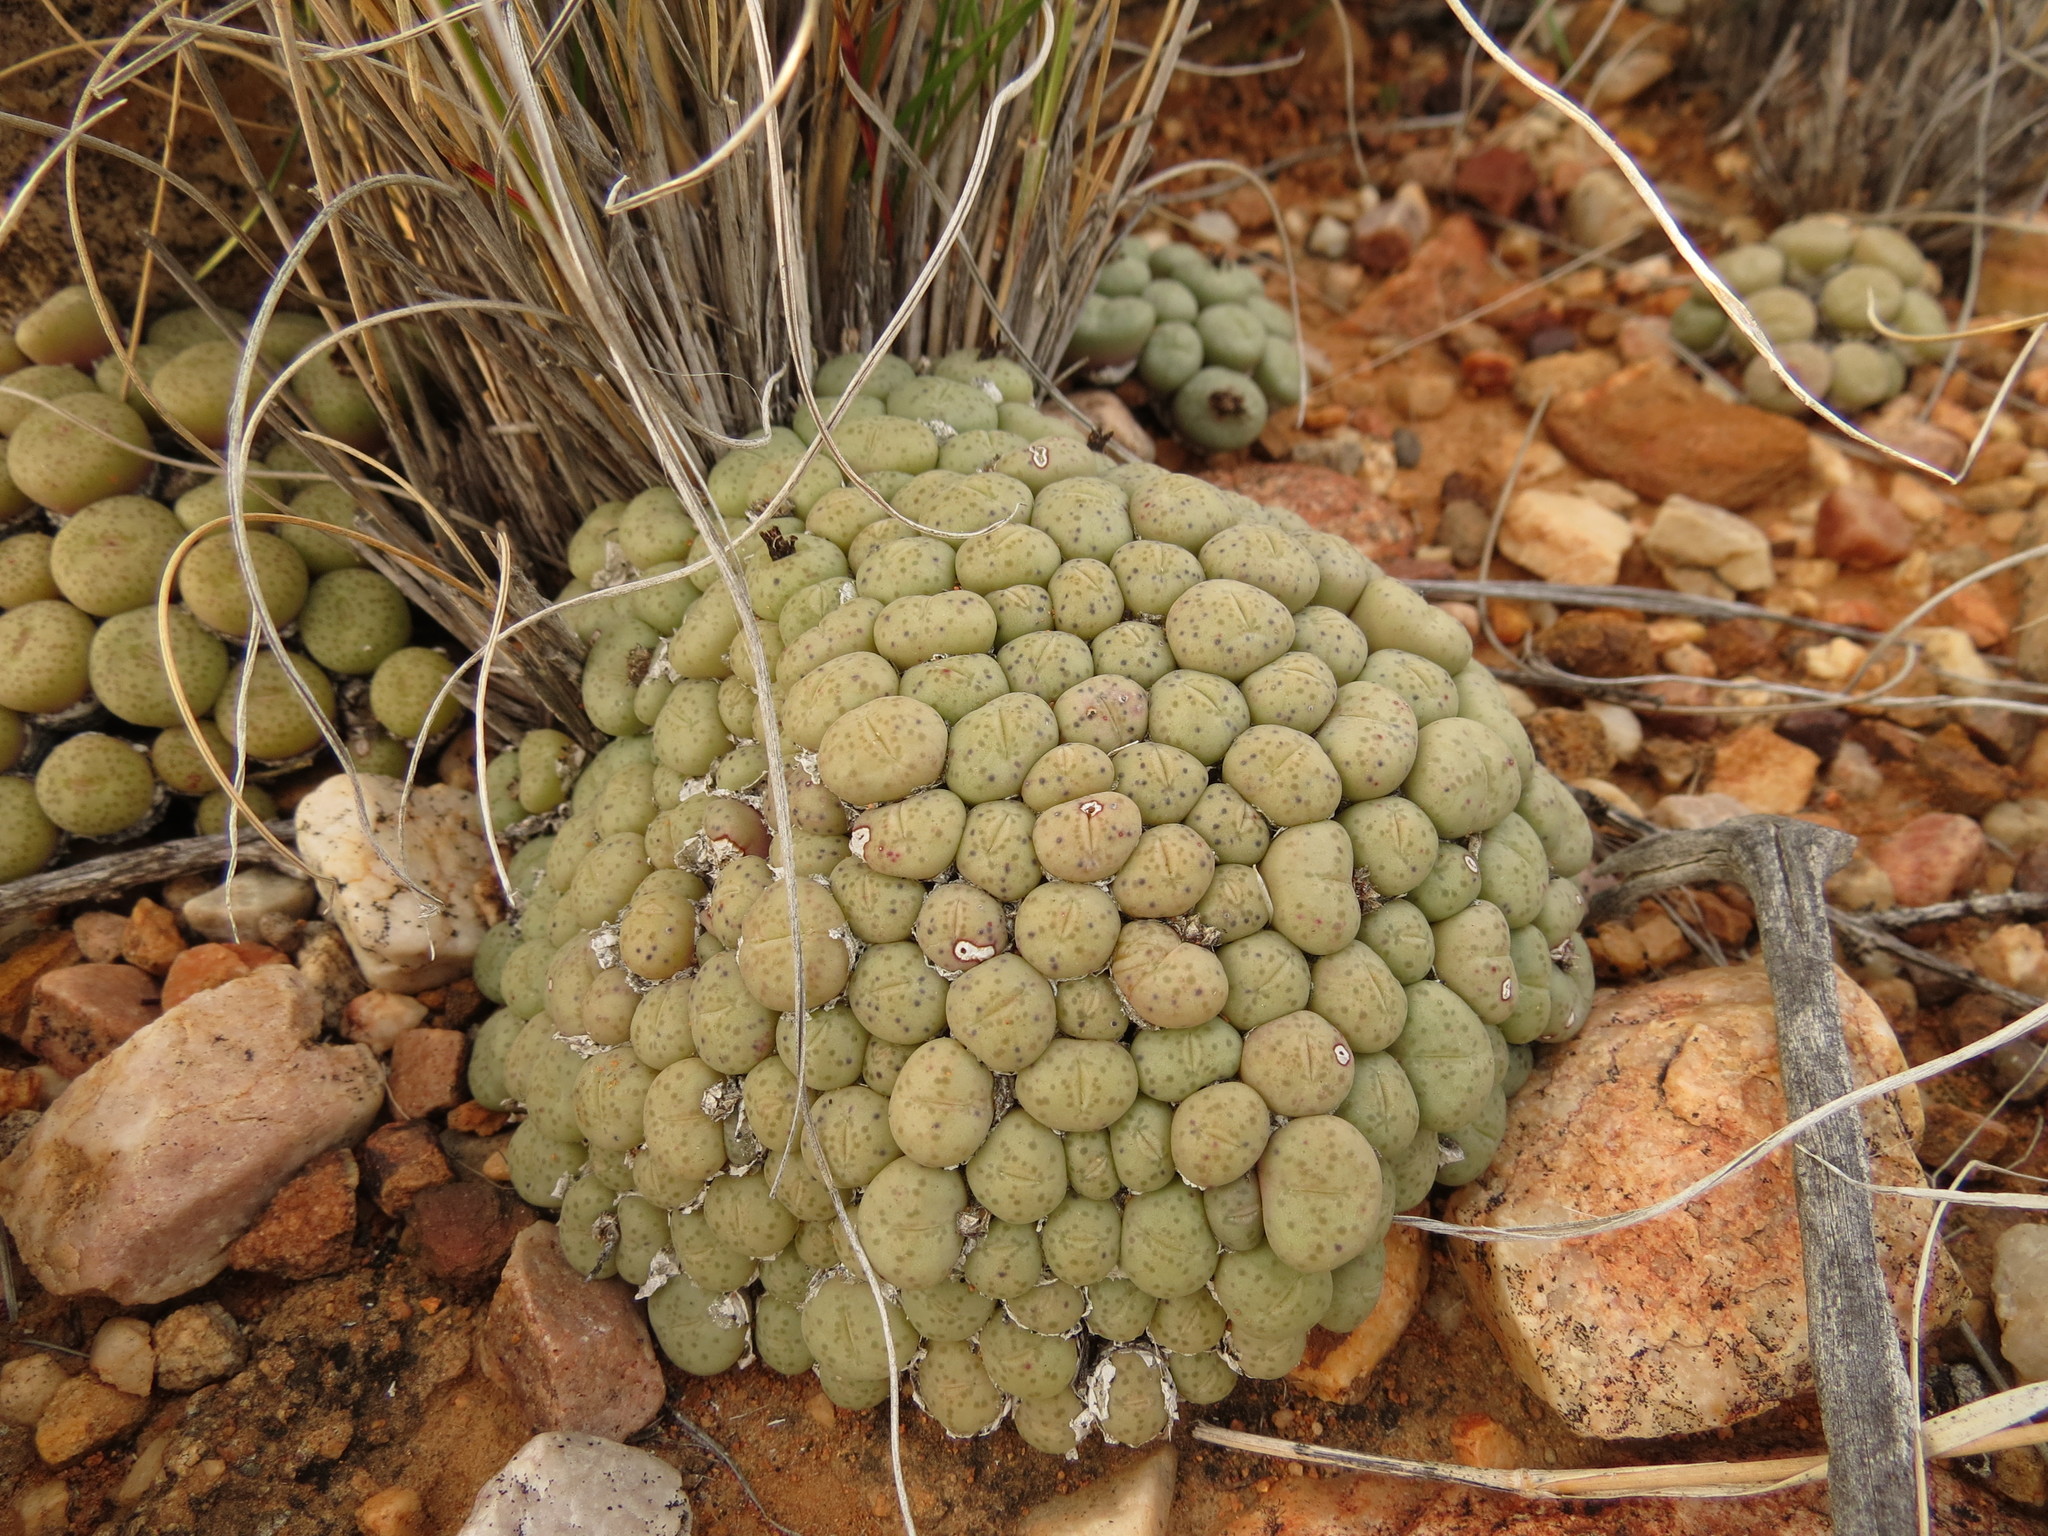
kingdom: Plantae
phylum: Tracheophyta
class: Magnoliopsida
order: Caryophyllales
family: Aizoaceae
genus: Conophytum
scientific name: Conophytum truncatum
